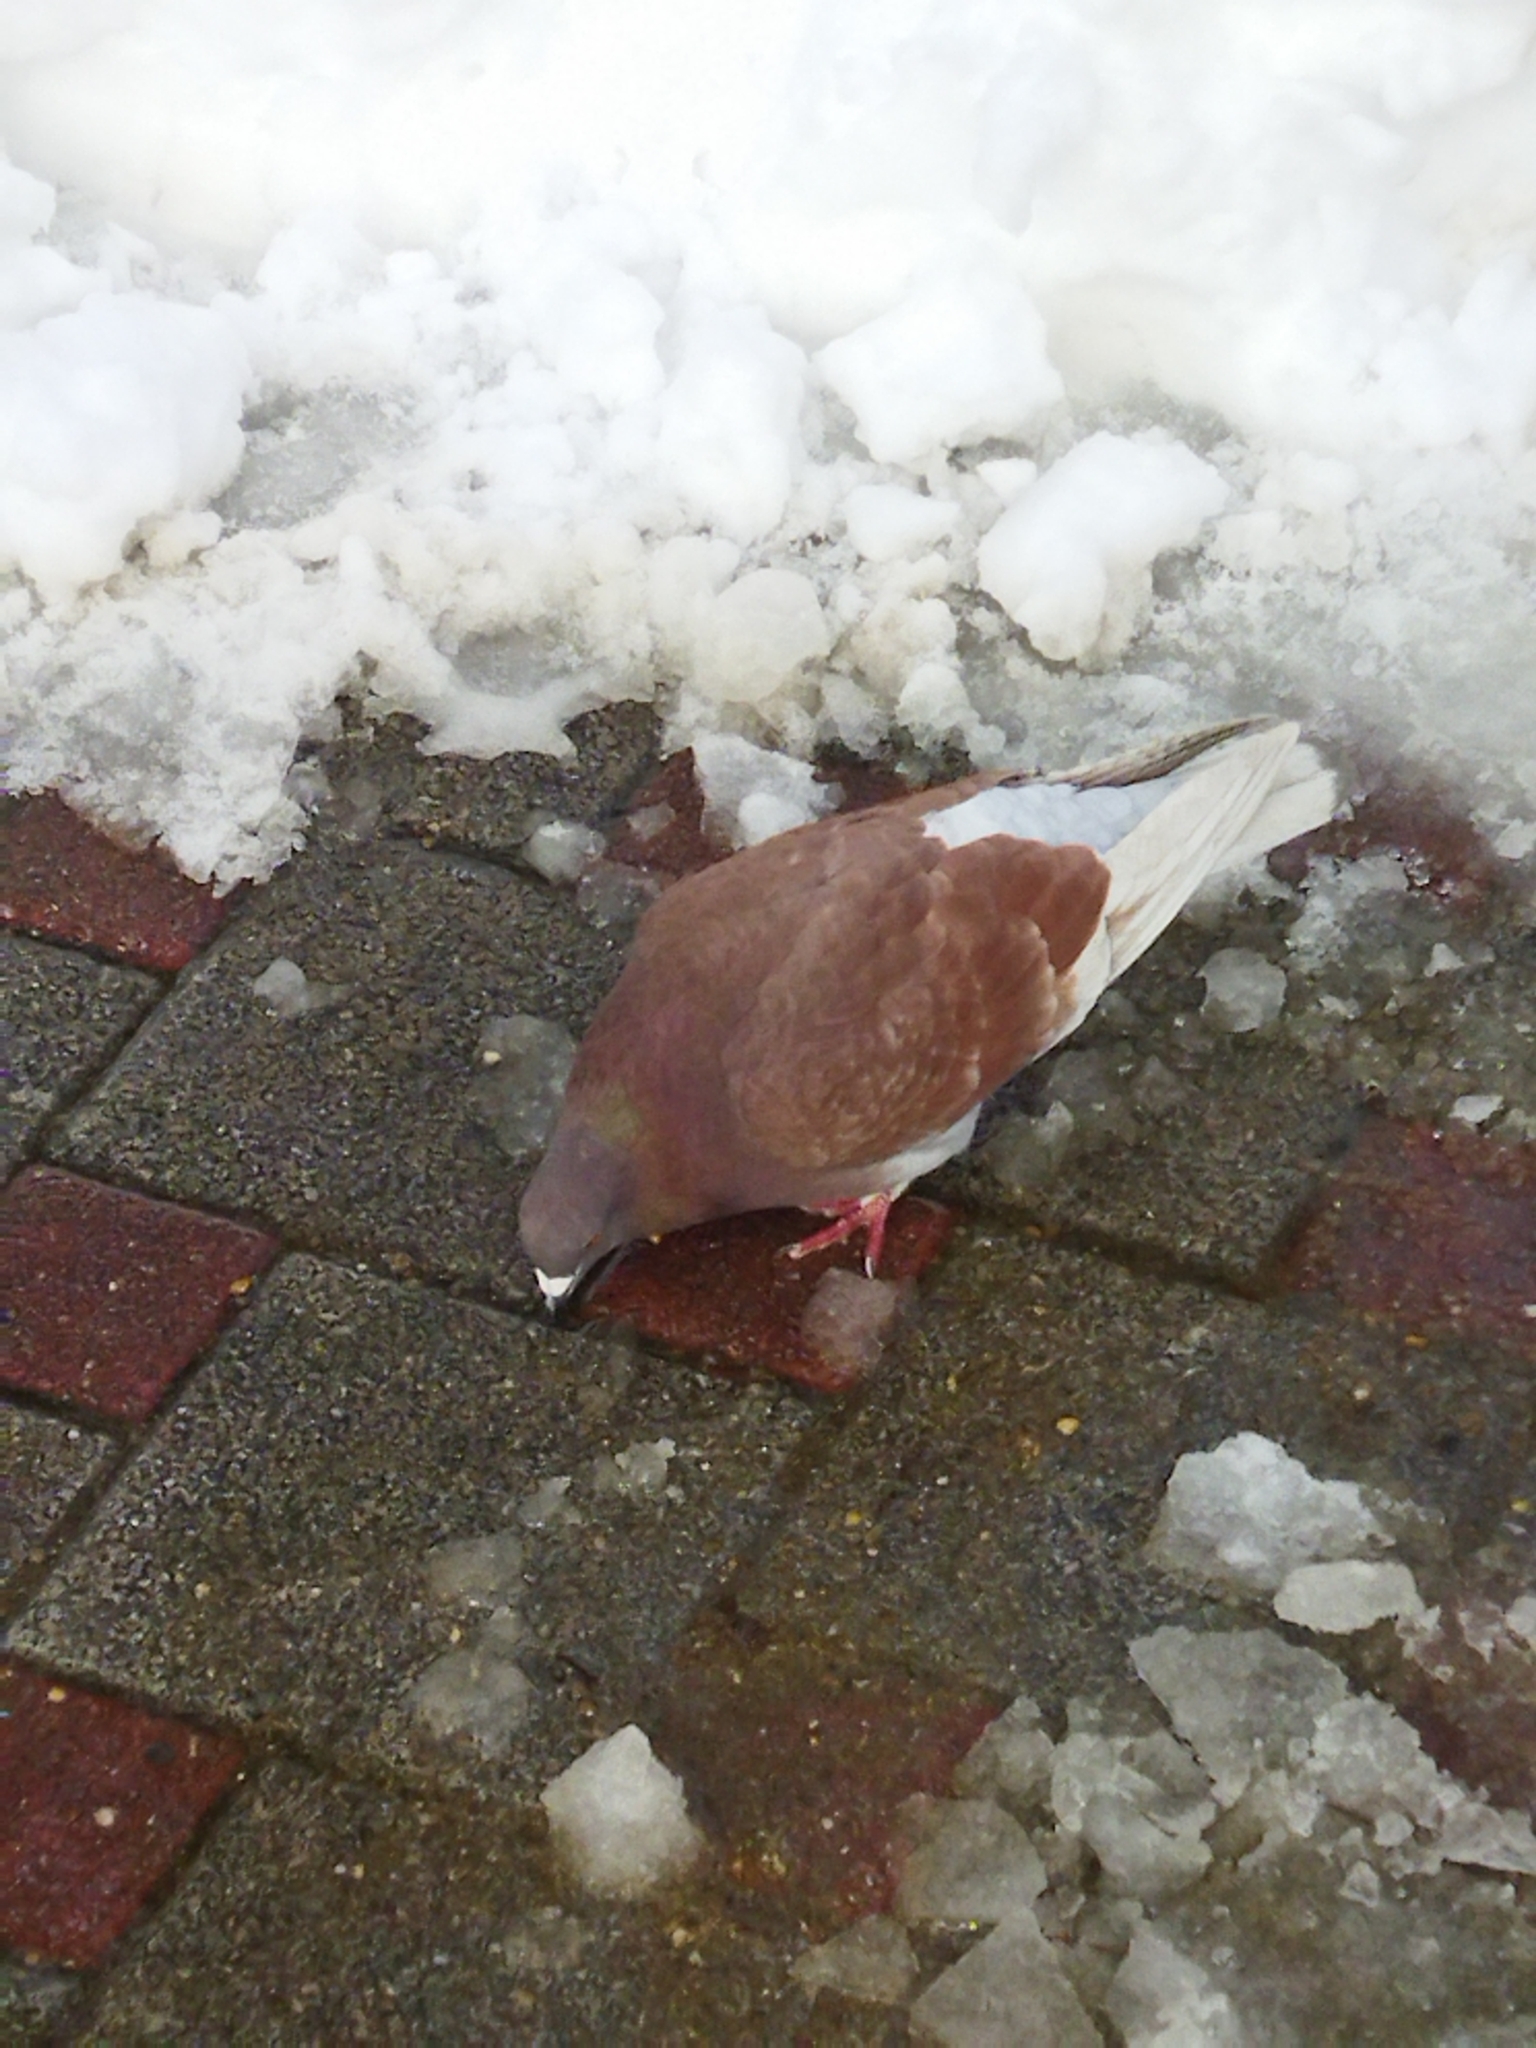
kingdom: Animalia
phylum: Chordata
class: Aves
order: Columbiformes
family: Columbidae
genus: Columba
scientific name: Columba livia
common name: Rock pigeon
